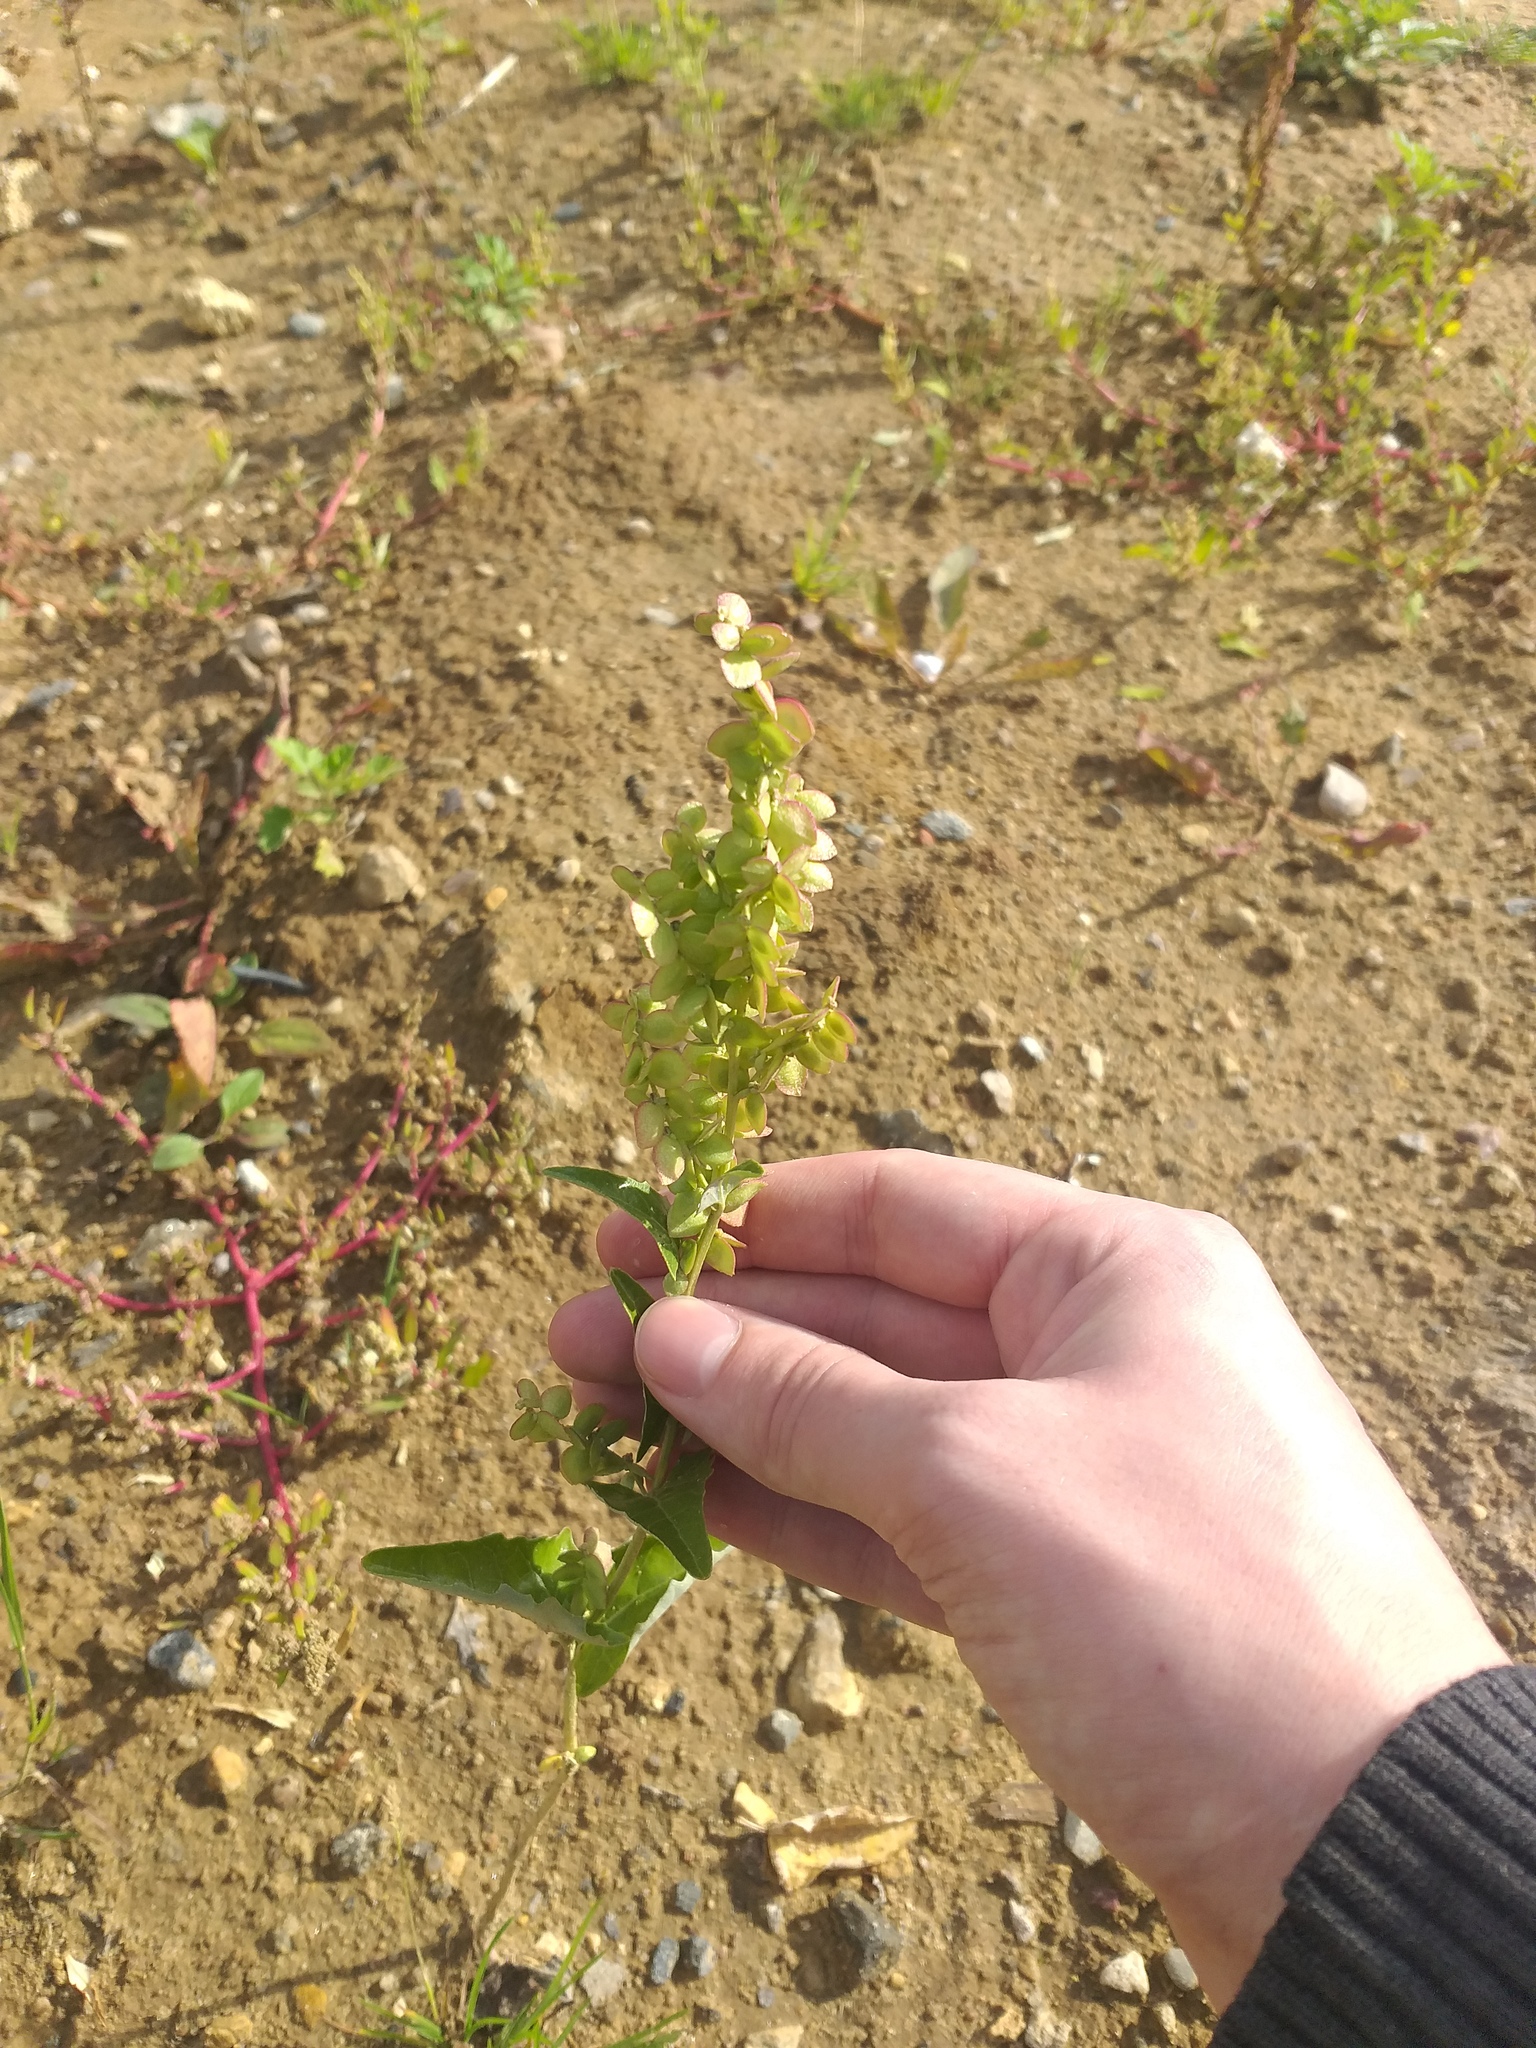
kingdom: Plantae
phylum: Tracheophyta
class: Magnoliopsida
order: Caryophyllales
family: Amaranthaceae
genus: Atriplex
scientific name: Atriplex sagittata
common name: Purple orache
